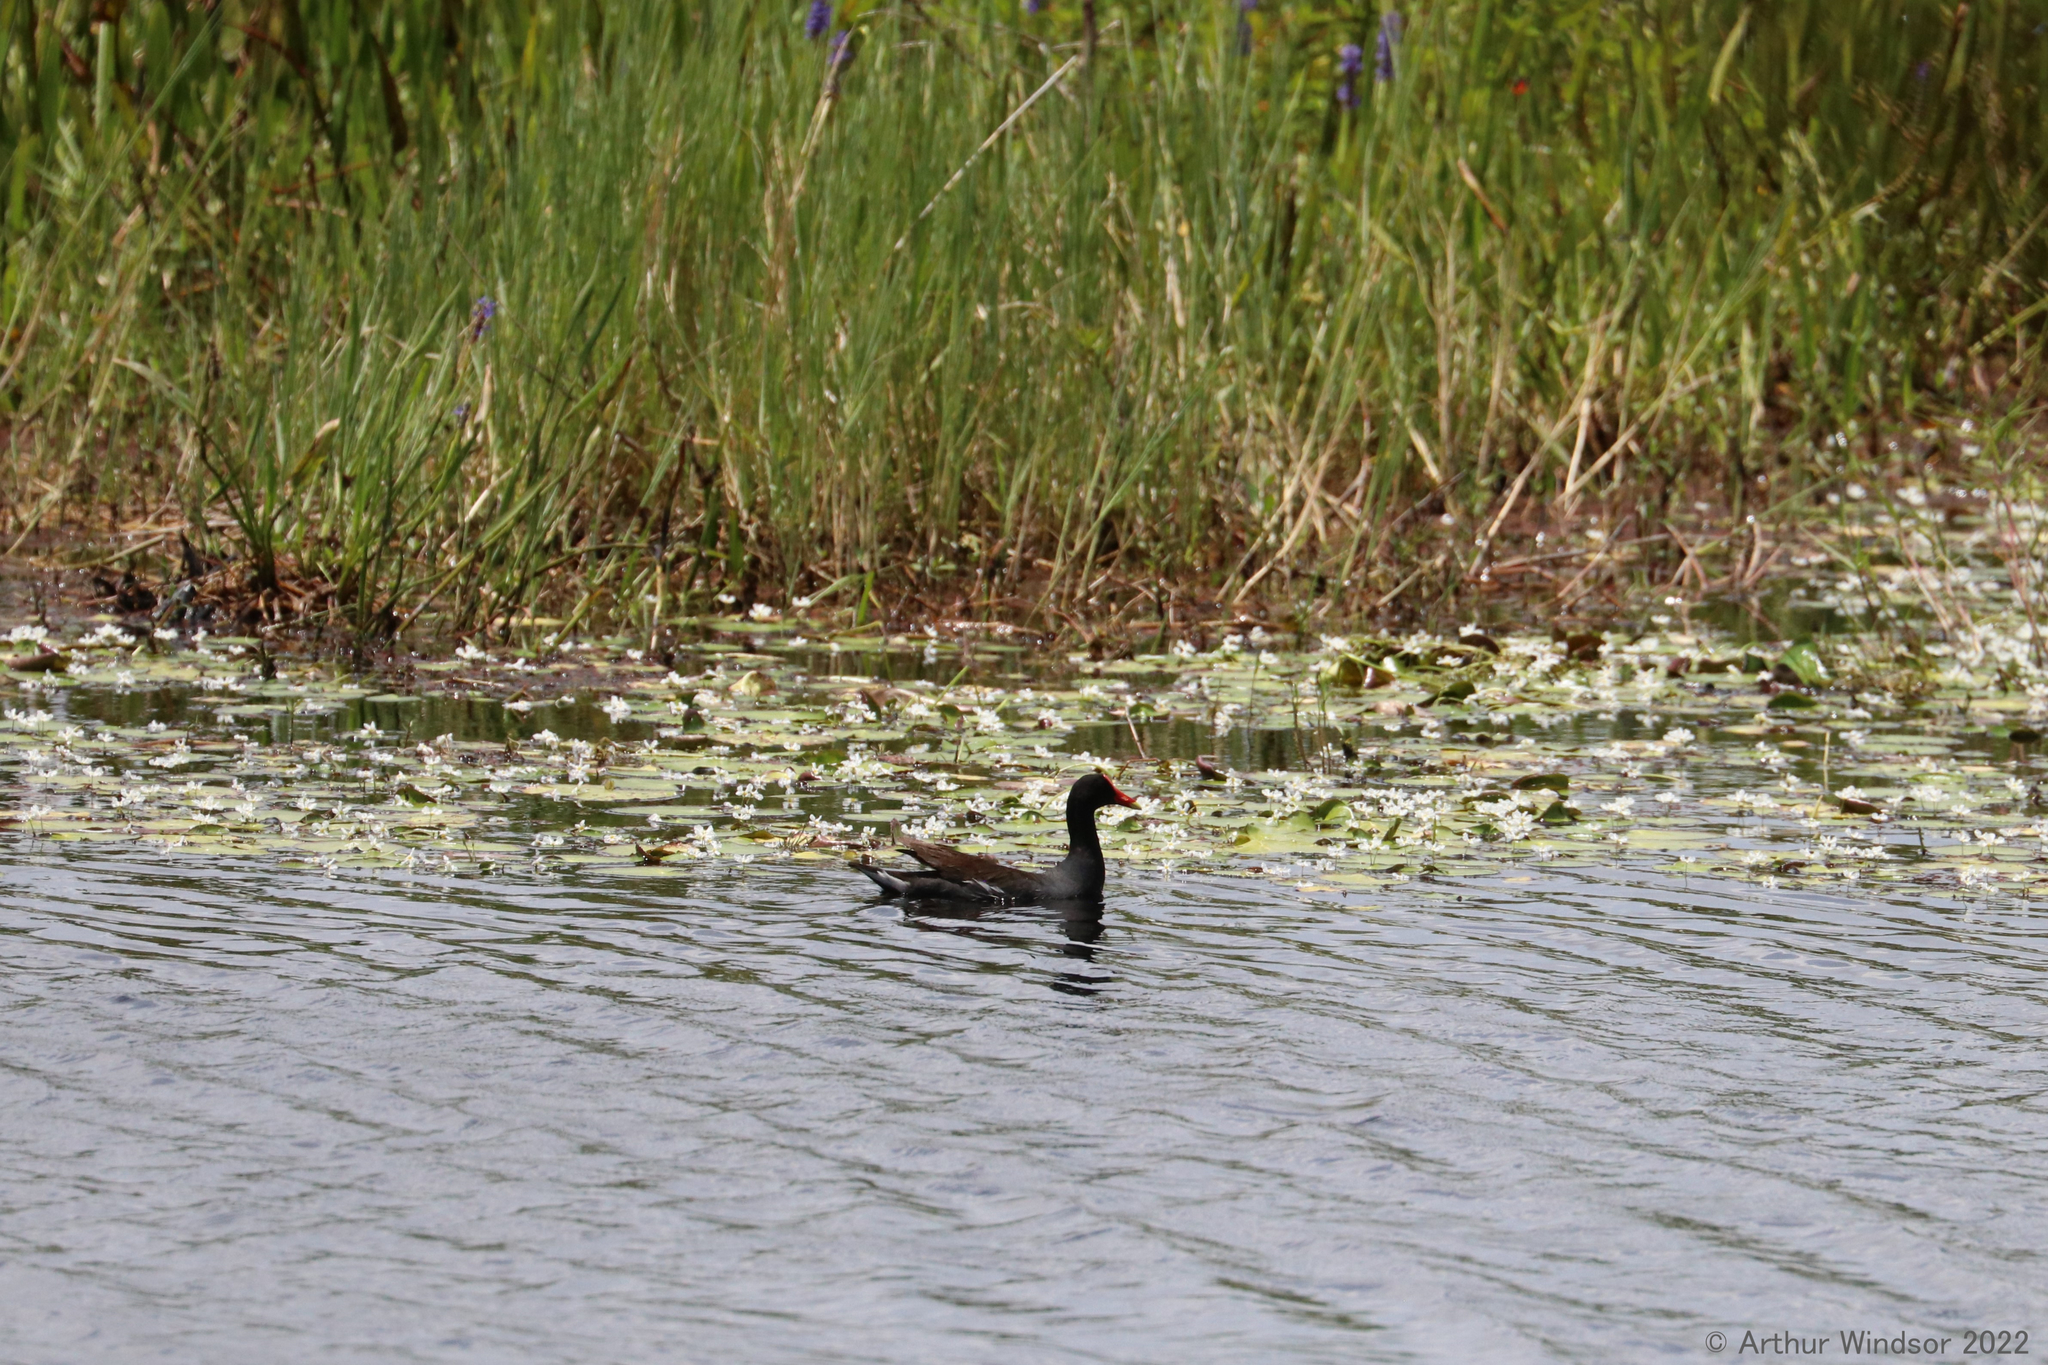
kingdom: Animalia
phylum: Chordata
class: Aves
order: Gruiformes
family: Rallidae
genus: Gallinula
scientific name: Gallinula chloropus
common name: Common moorhen
